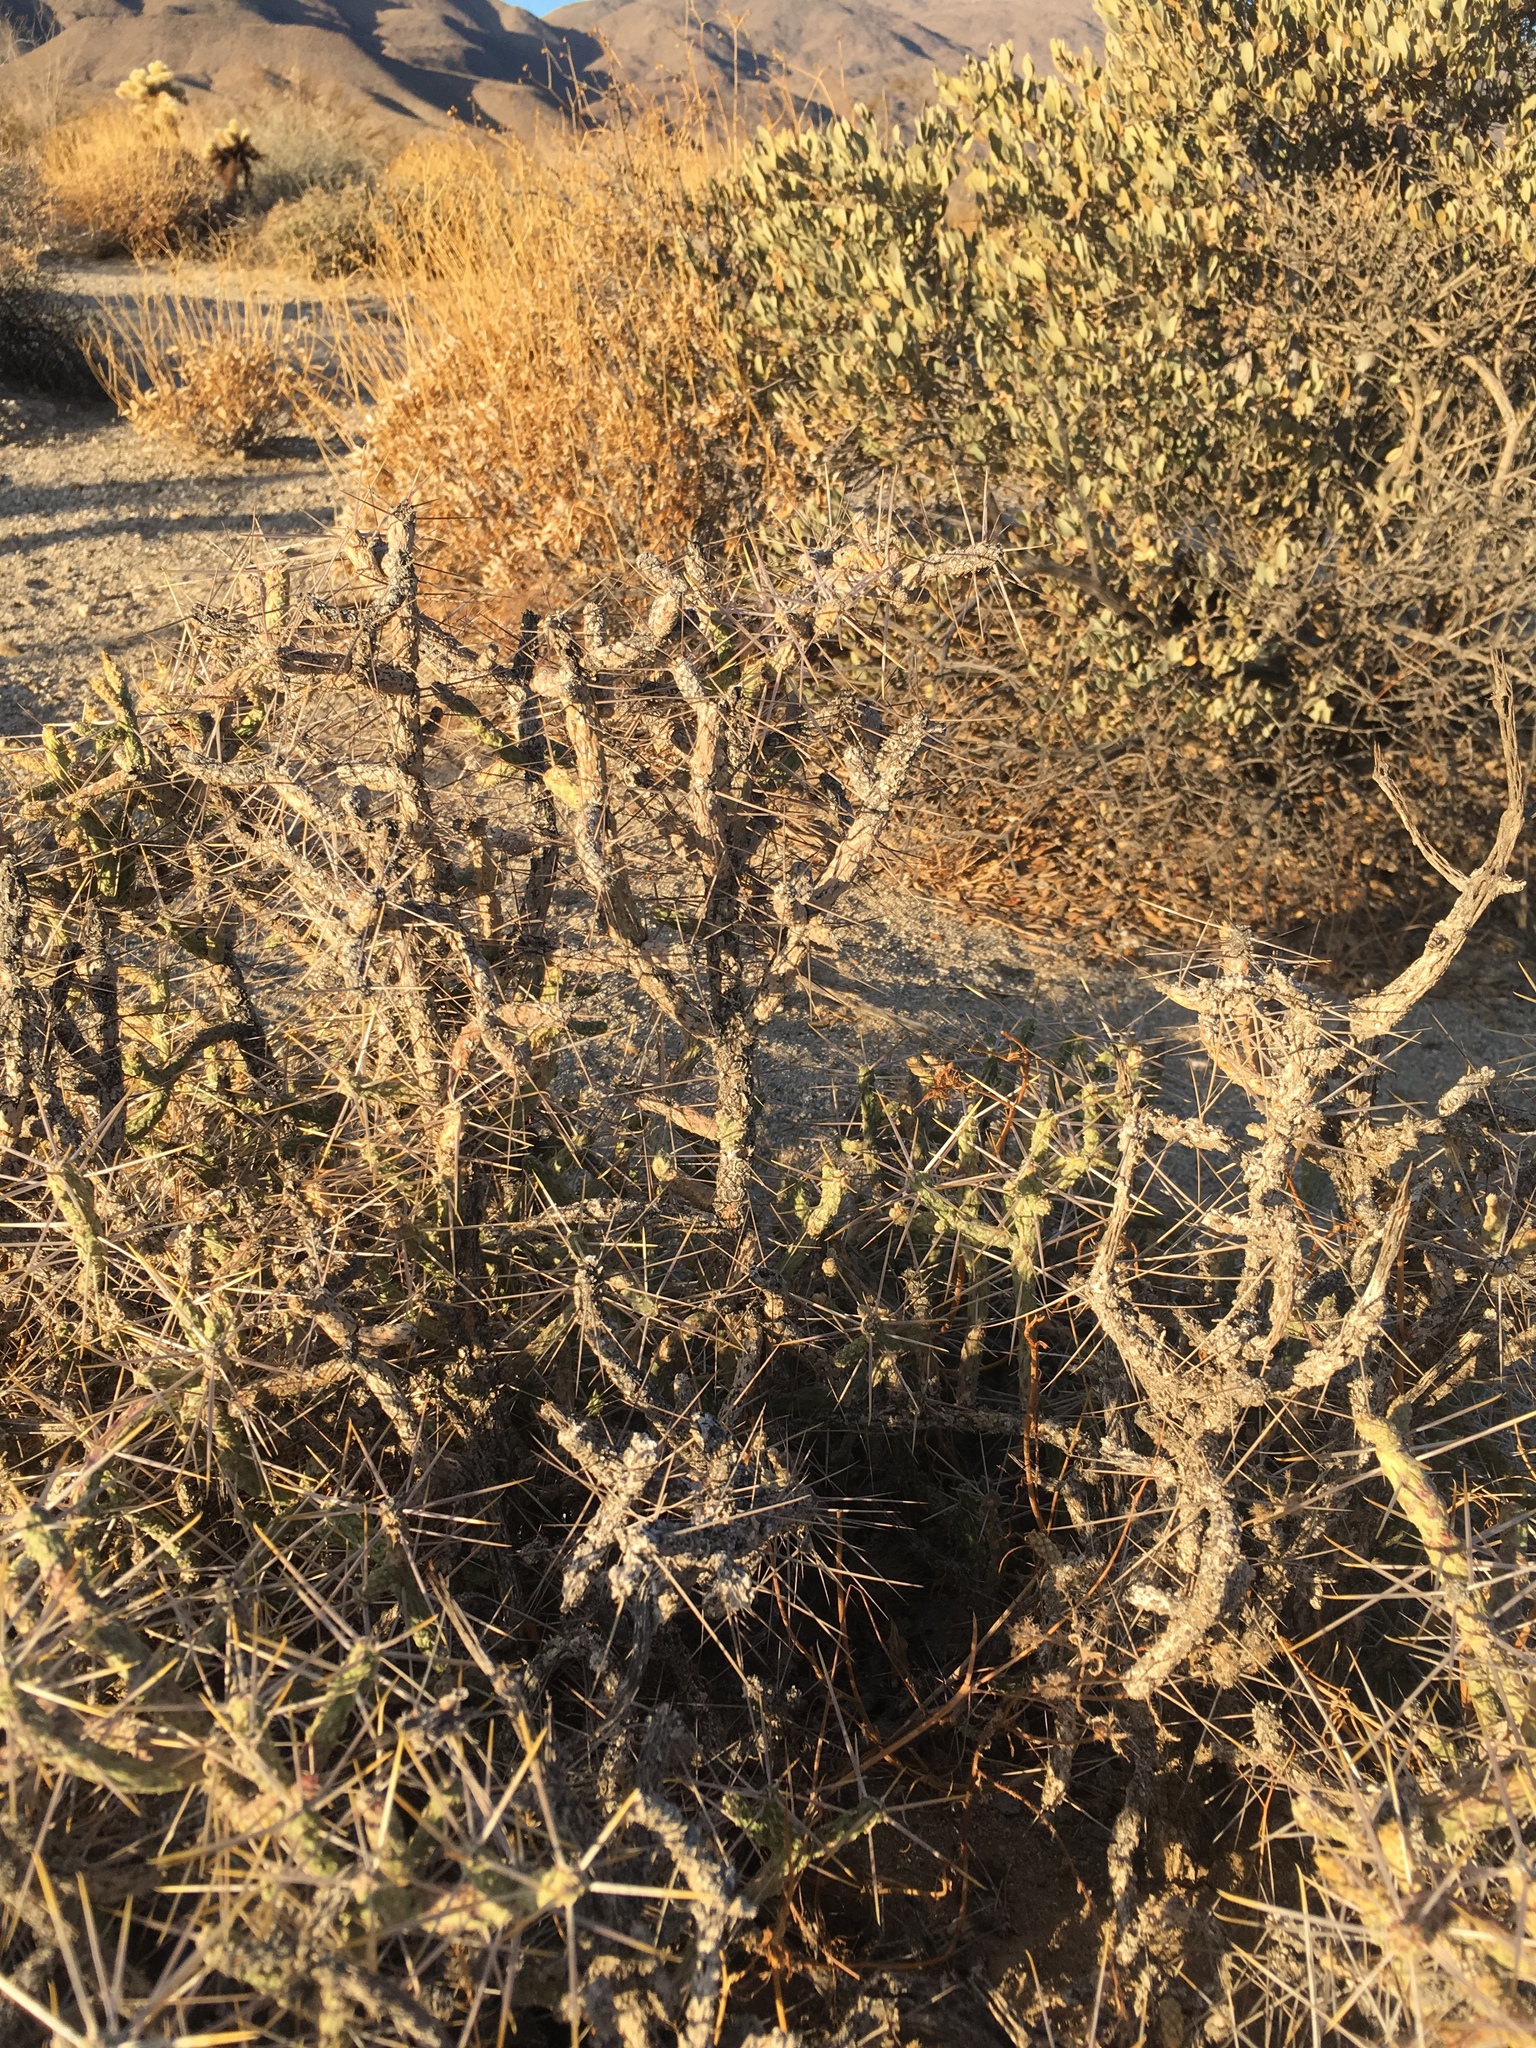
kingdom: Plantae
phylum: Tracheophyta
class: Magnoliopsida
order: Caryophyllales
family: Cactaceae
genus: Cylindropuntia
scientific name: Cylindropuntia ramosissima
